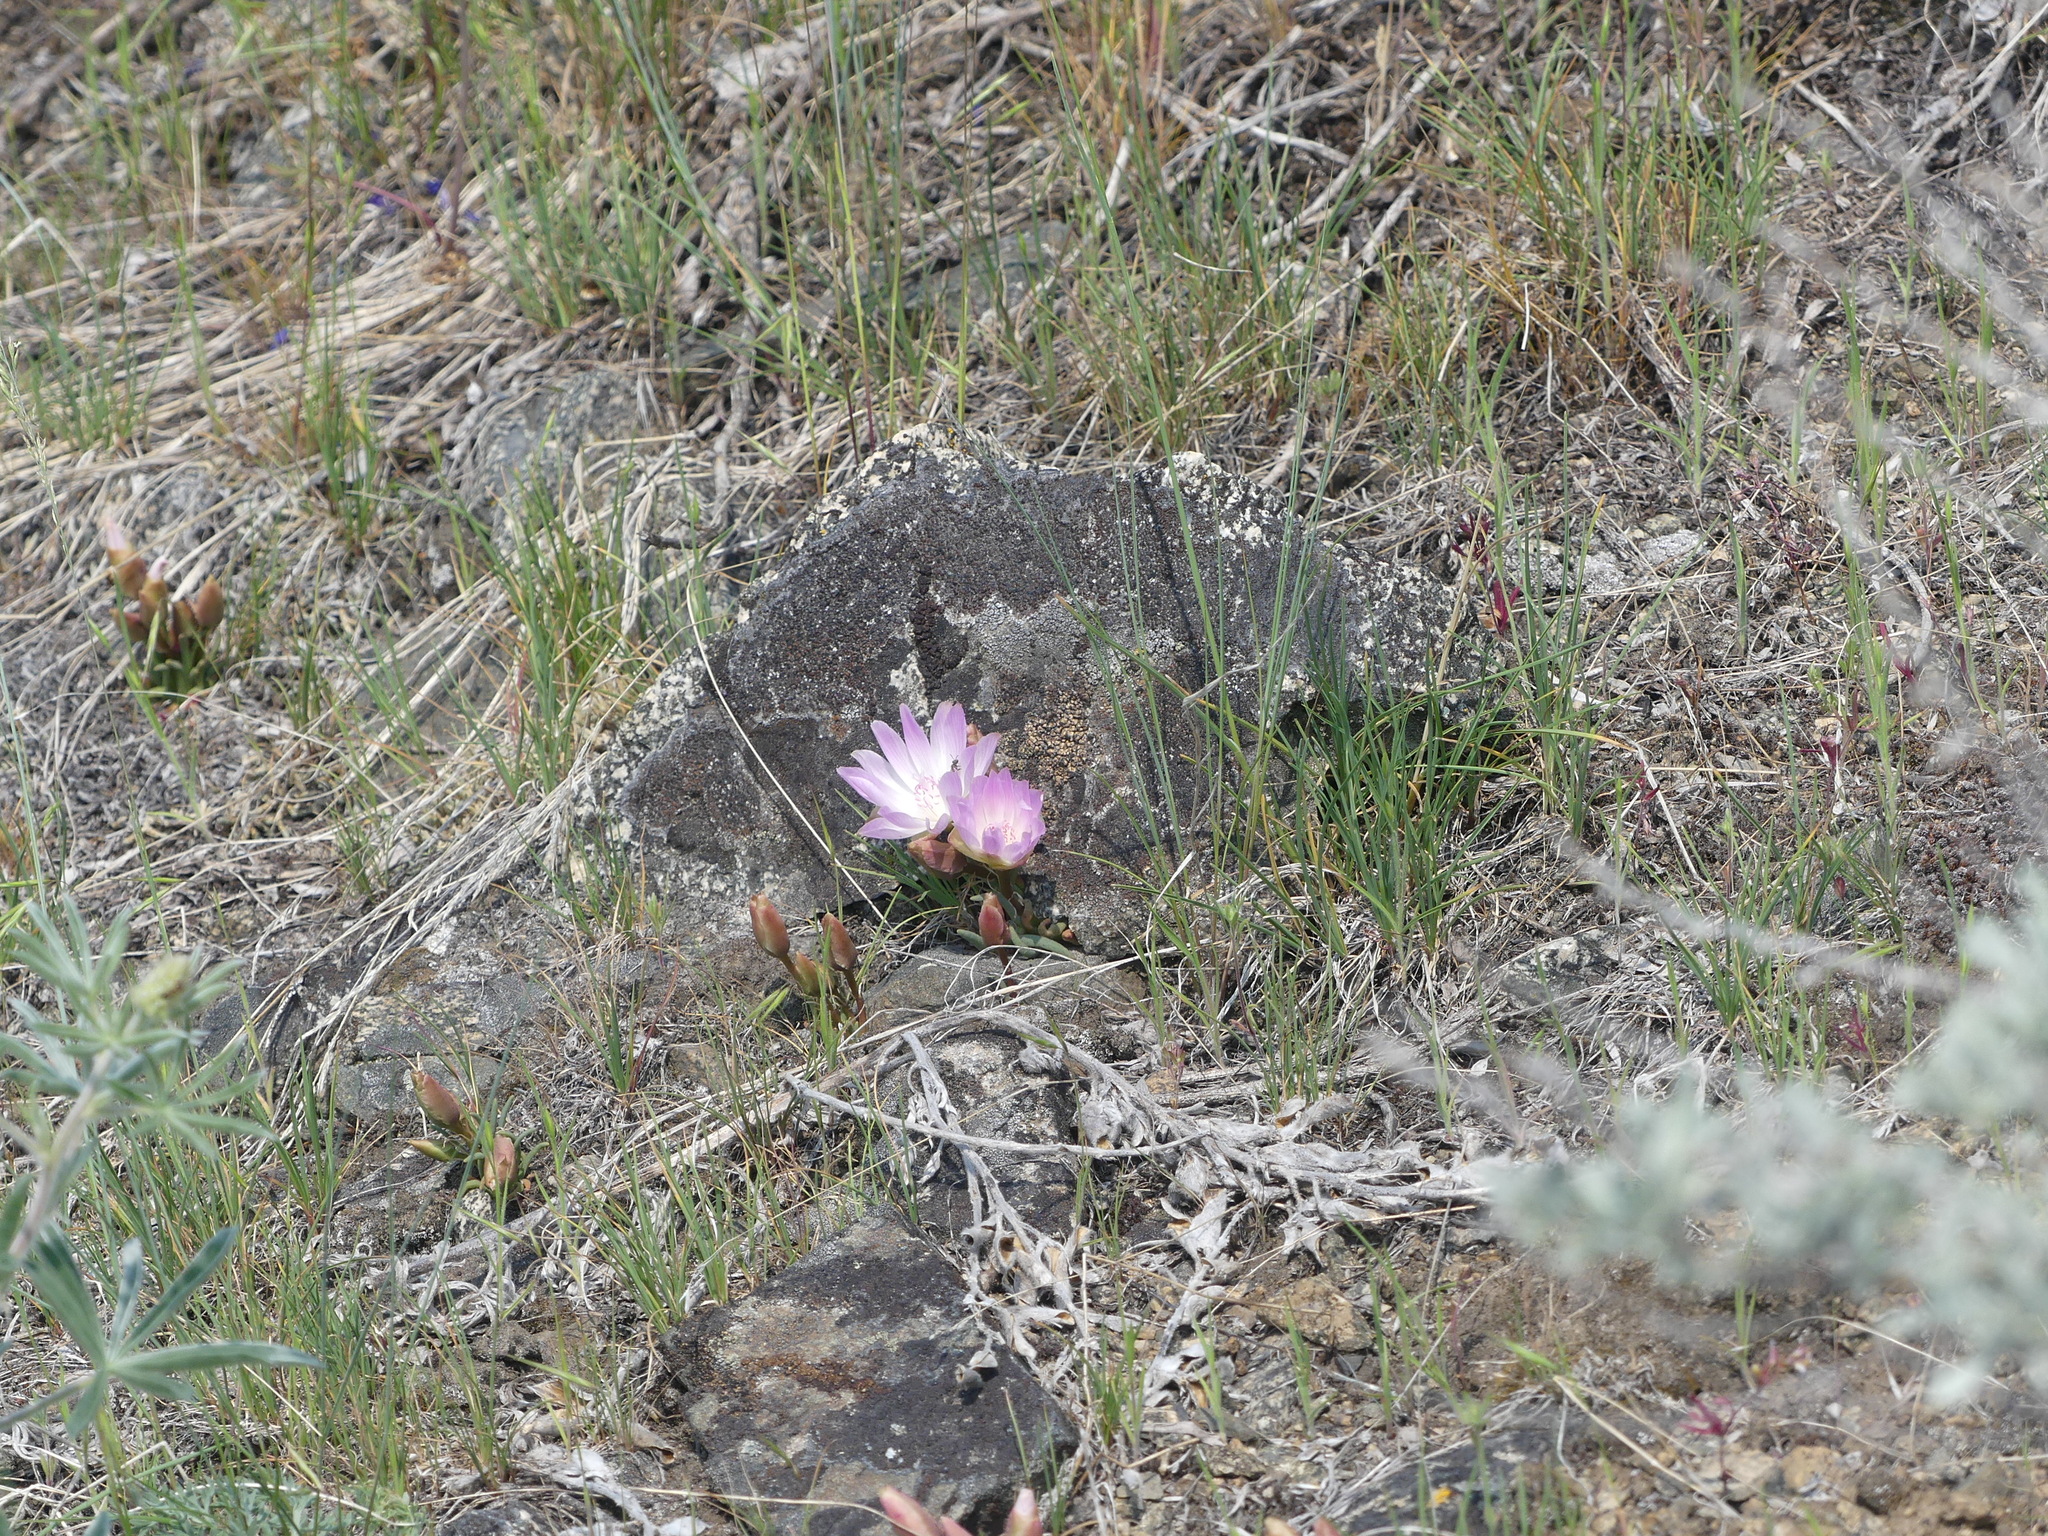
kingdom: Plantae
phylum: Tracheophyta
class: Magnoliopsida
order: Caryophyllales
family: Montiaceae
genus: Lewisia
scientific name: Lewisia rediviva
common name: Bitter-root
